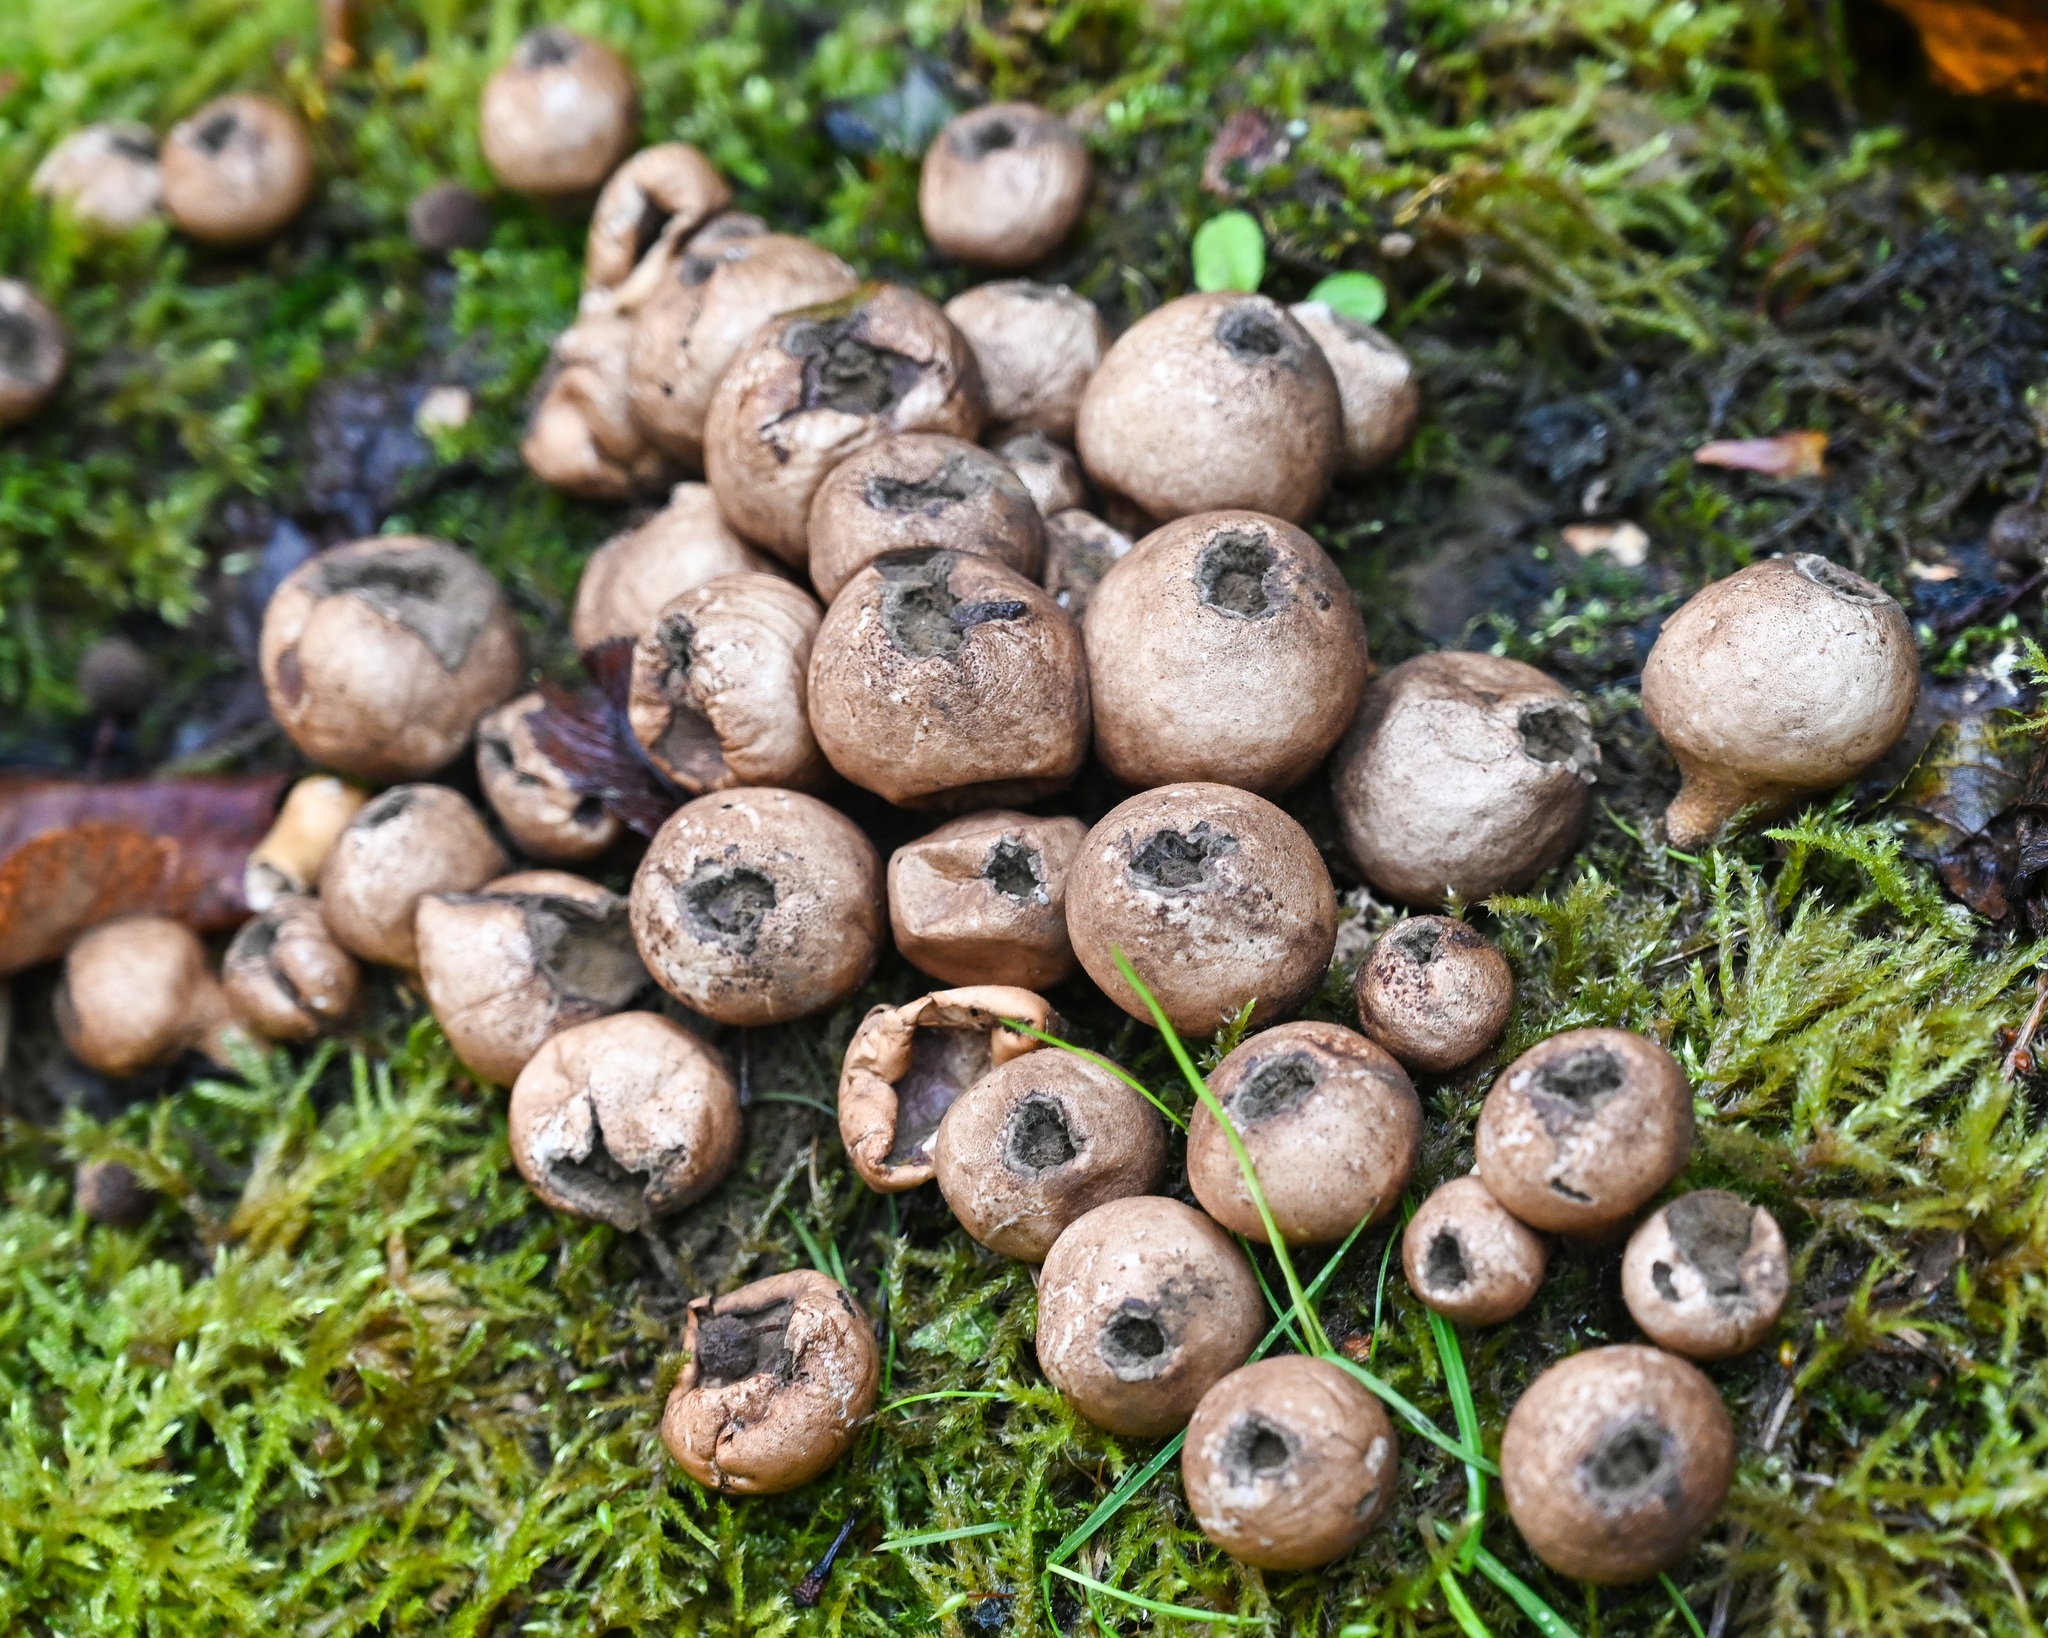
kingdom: Fungi
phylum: Basidiomycota
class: Agaricomycetes
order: Agaricales
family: Lycoperdaceae
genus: Apioperdon
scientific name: Apioperdon pyriforme
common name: Pear-shaped puffball
